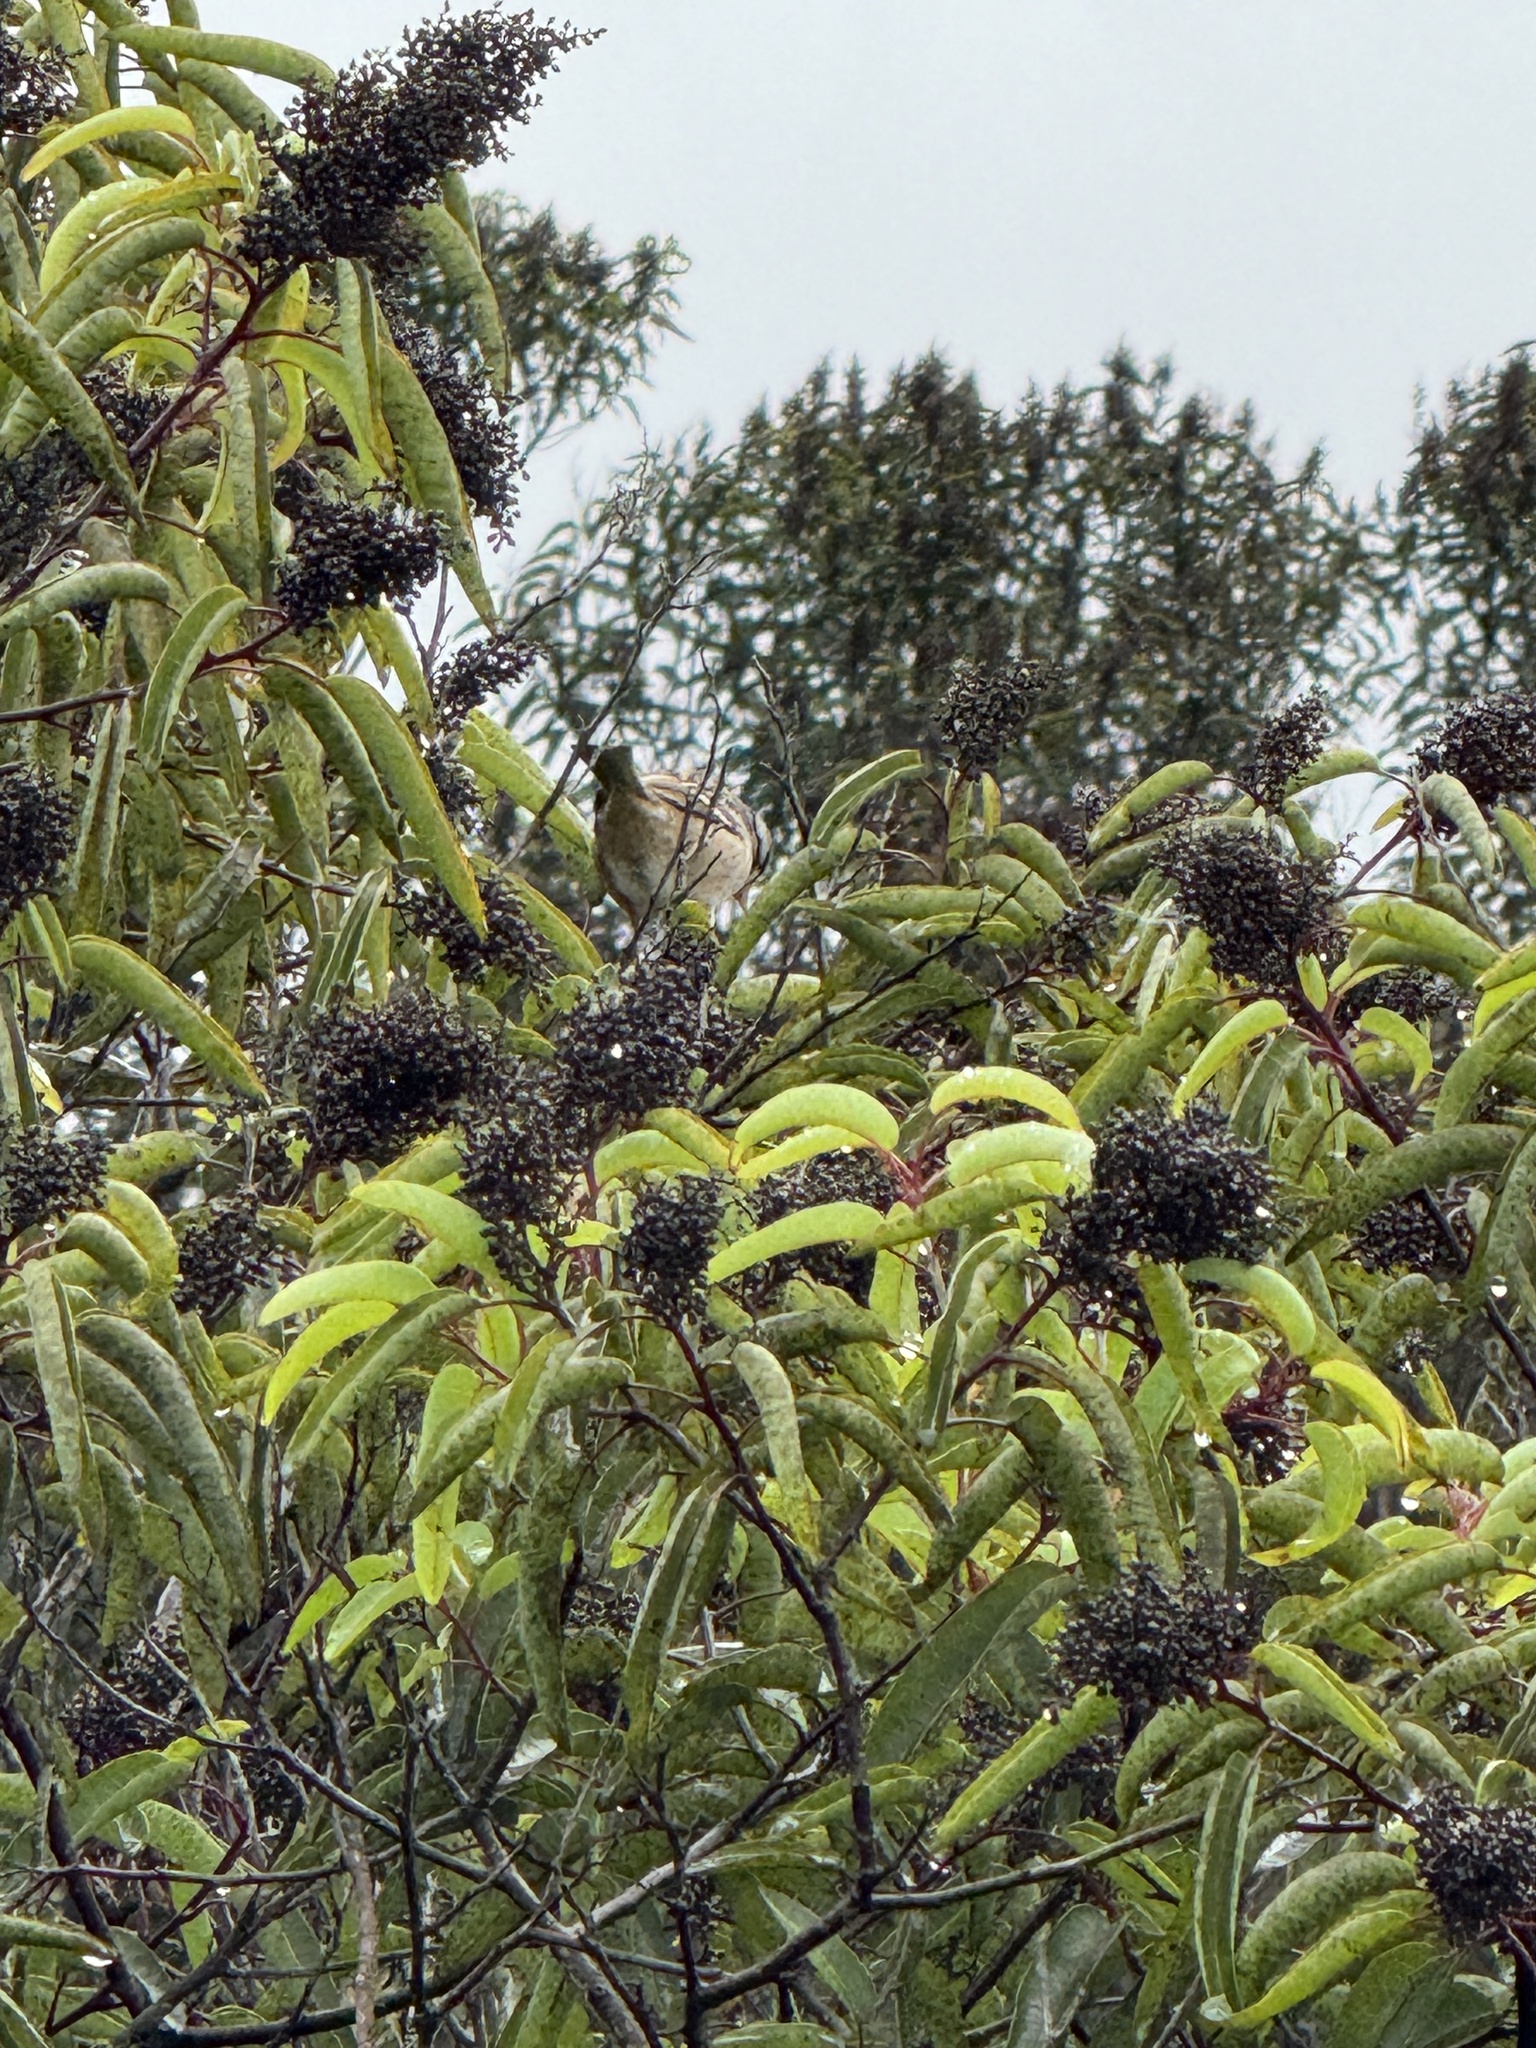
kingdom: Animalia
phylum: Chordata
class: Aves
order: Passeriformes
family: Passerellidae
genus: Zonotrichia
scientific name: Zonotrichia leucophrys
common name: White-crowned sparrow
